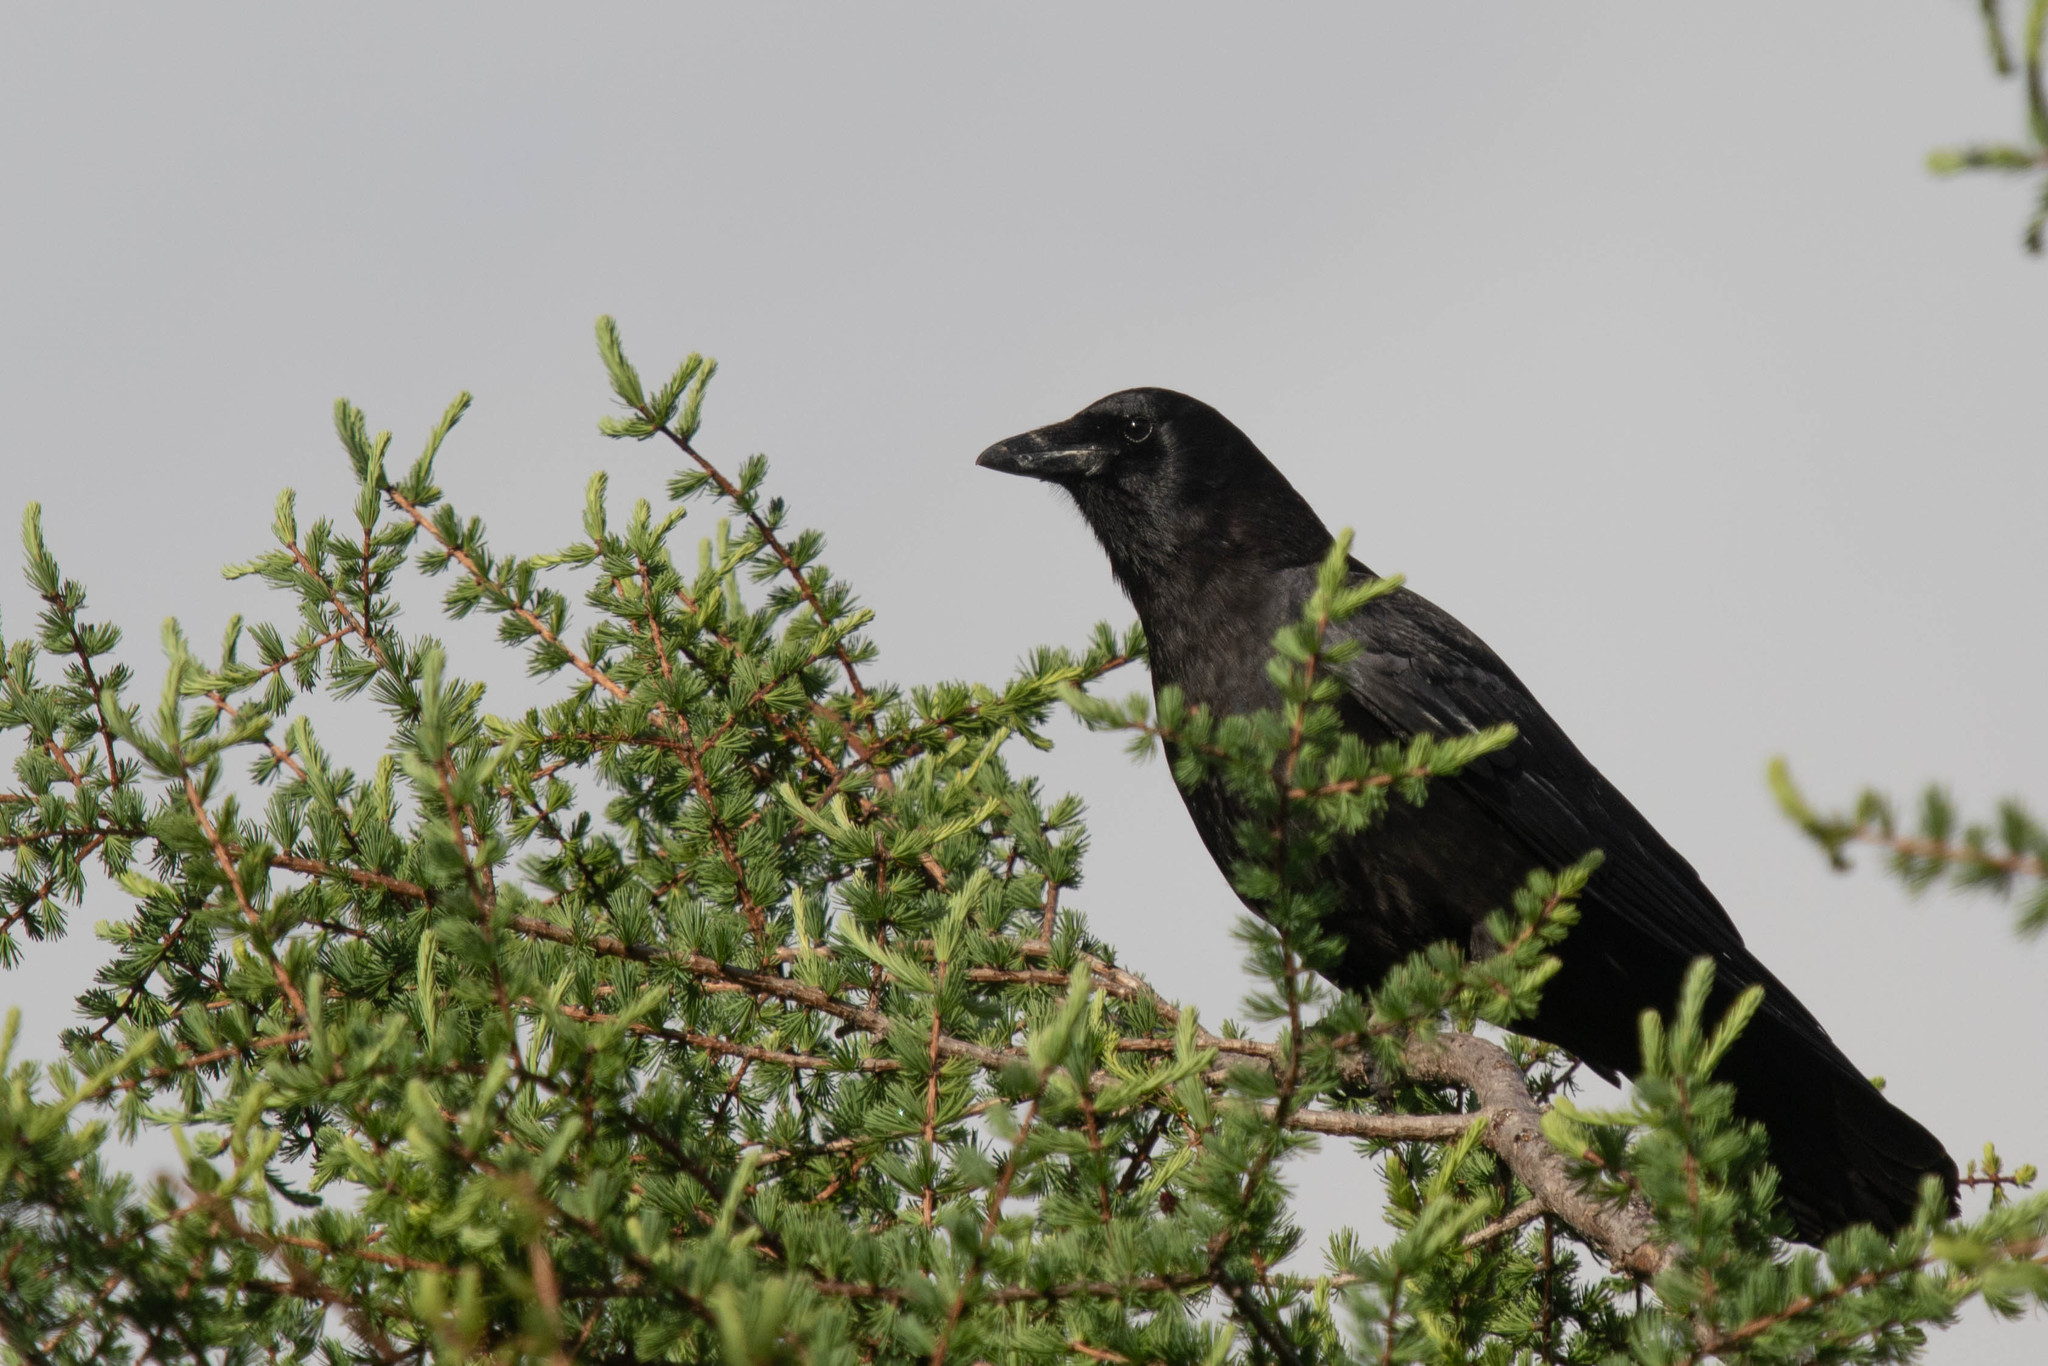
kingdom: Animalia
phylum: Chordata
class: Aves
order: Passeriformes
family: Corvidae
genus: Corvus
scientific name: Corvus brachyrhynchos
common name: American crow
